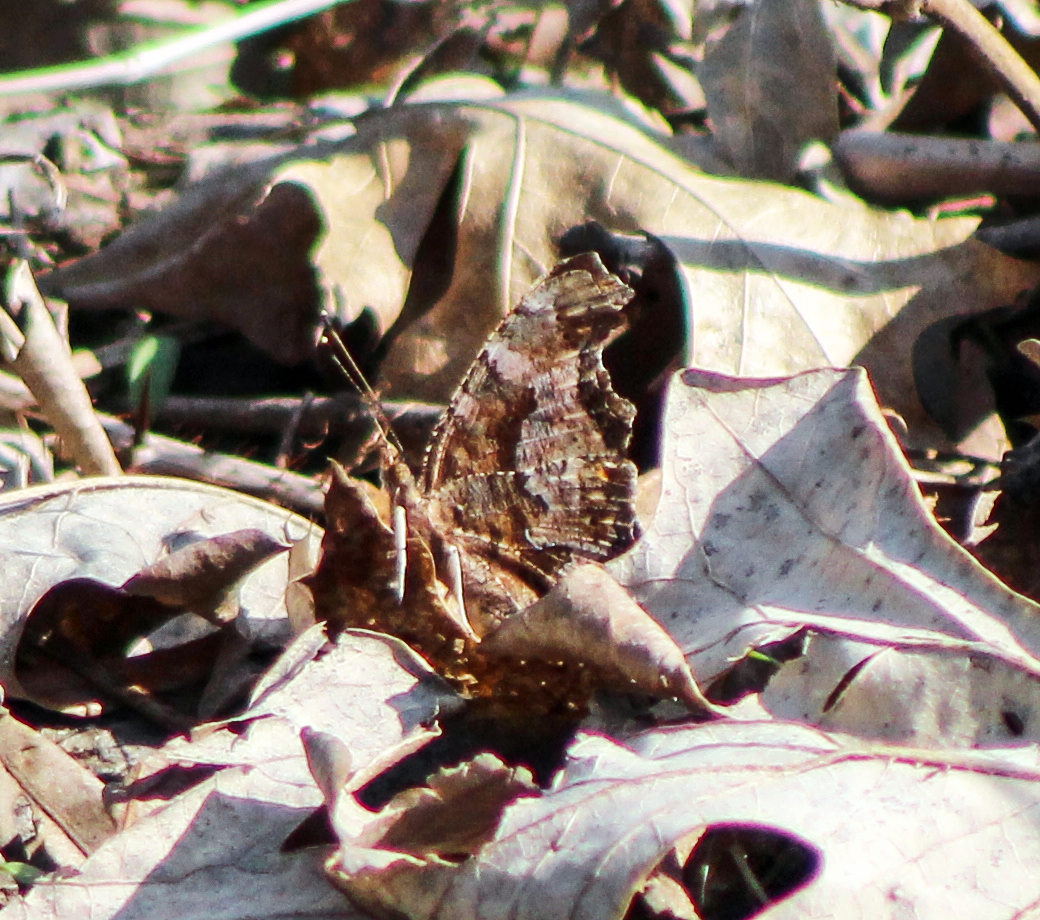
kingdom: Animalia
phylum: Arthropoda
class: Insecta
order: Lepidoptera
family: Nymphalidae
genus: Polygonia
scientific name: Polygonia comma
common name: Eastern comma
